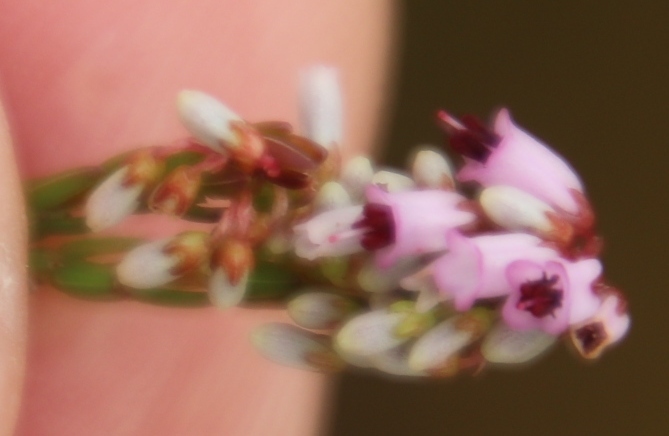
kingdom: Plantae
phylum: Tracheophyta
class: Magnoliopsida
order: Ericales
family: Ericaceae
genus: Erica
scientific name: Erica equisetifolia
